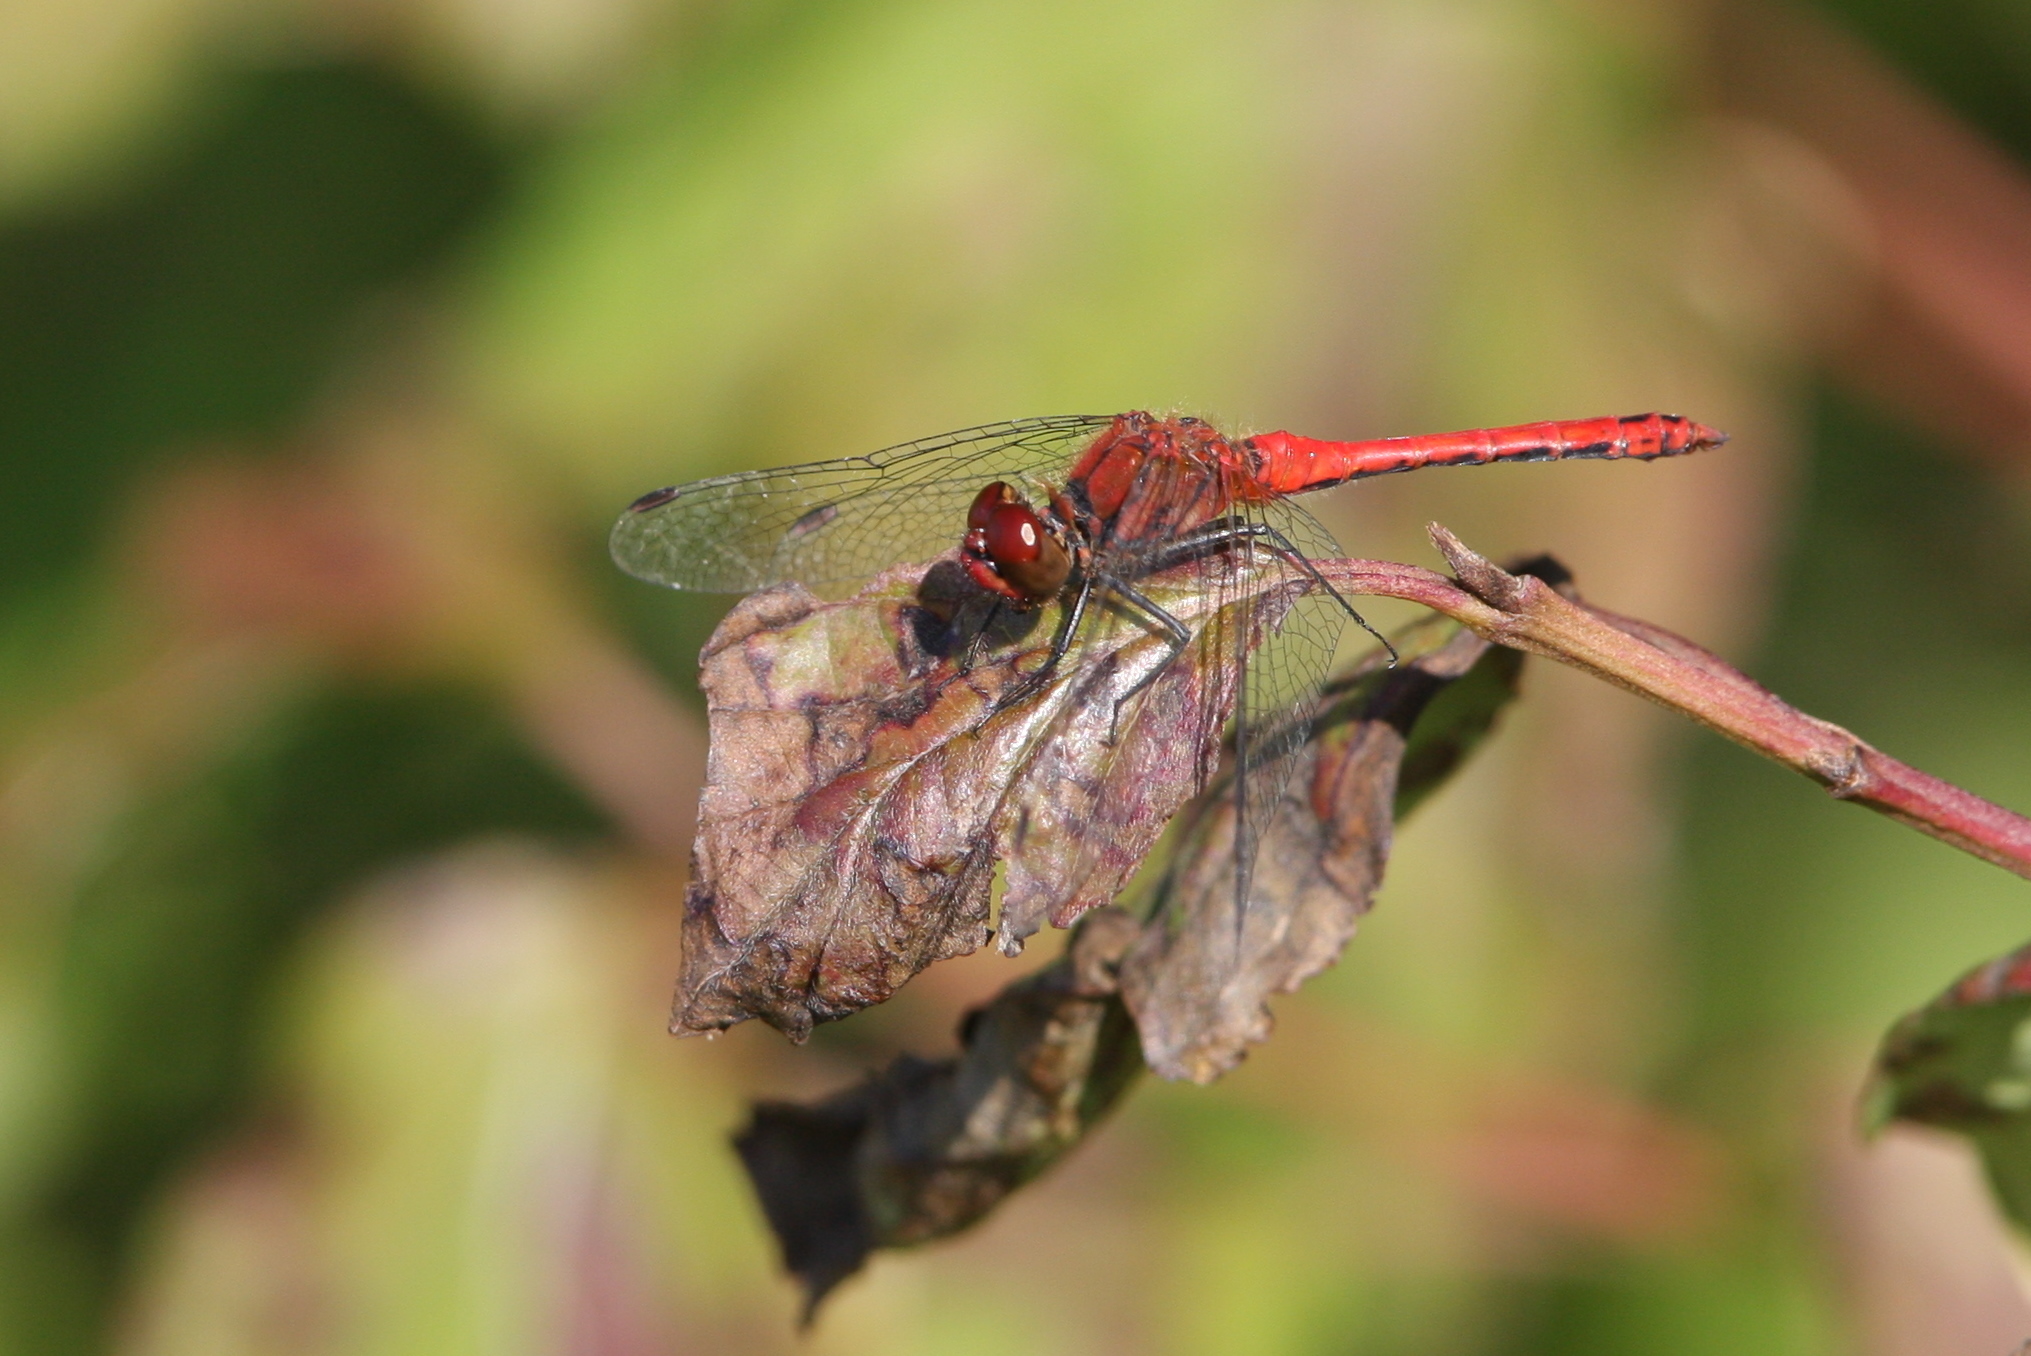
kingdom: Animalia
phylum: Arthropoda
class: Insecta
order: Odonata
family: Libellulidae
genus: Sympetrum
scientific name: Sympetrum sanguineum
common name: Ruddy darter
